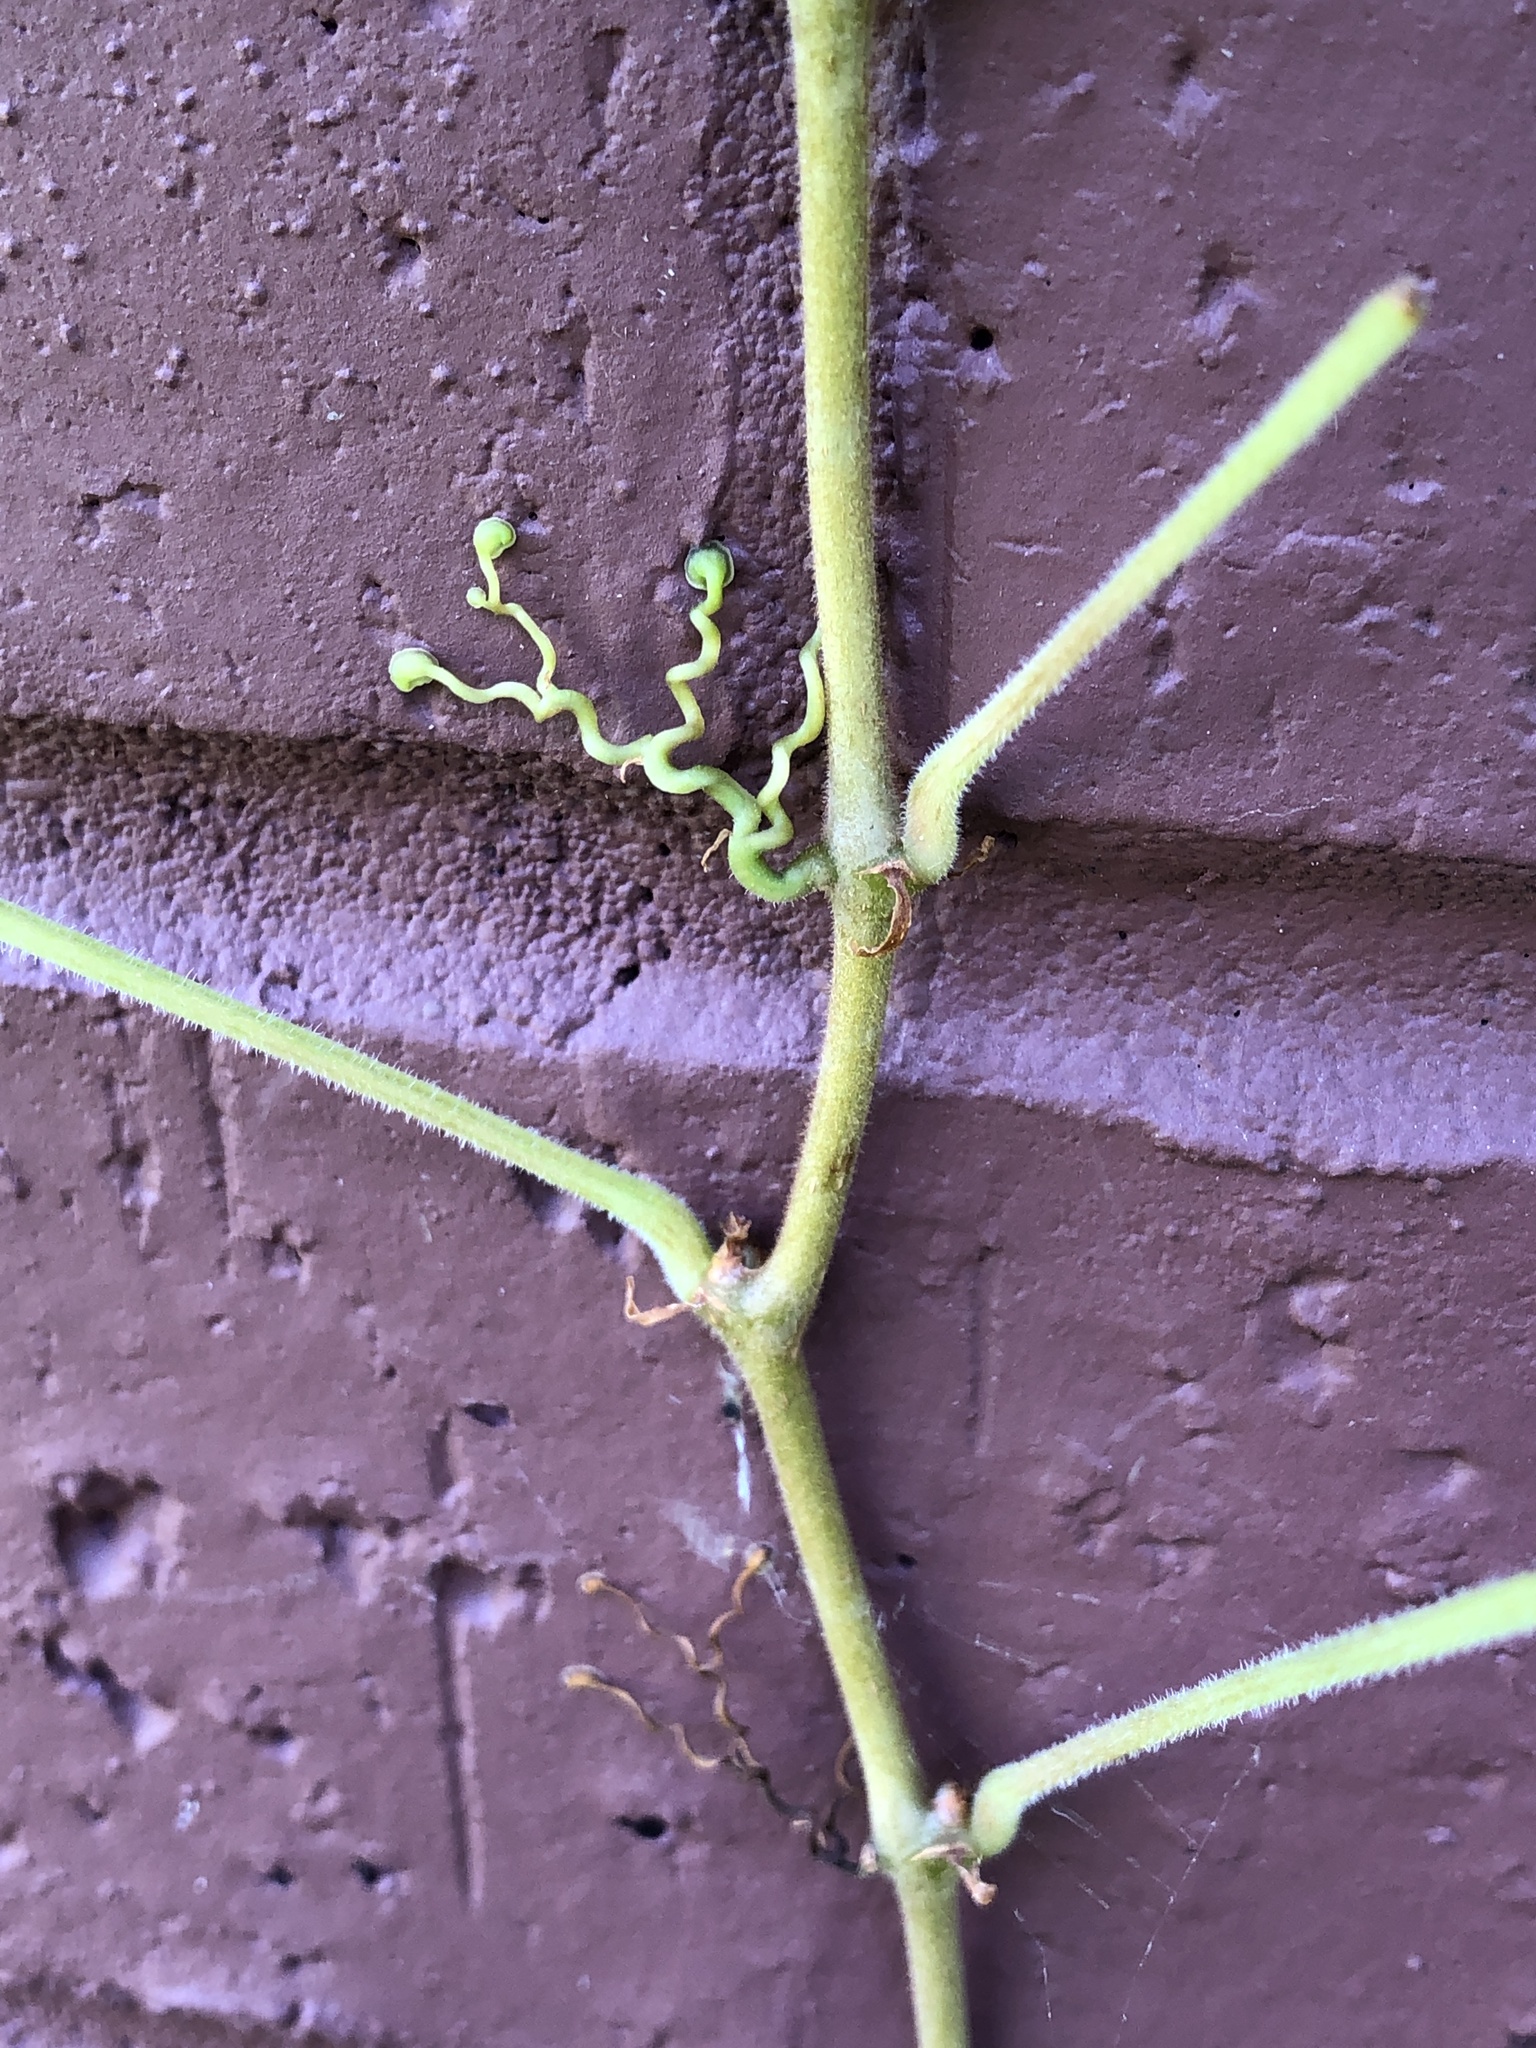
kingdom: Plantae
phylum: Tracheophyta
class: Magnoliopsida
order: Vitales
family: Vitaceae
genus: Parthenocissus
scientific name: Parthenocissus quinquefolia
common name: Virginia-creeper
